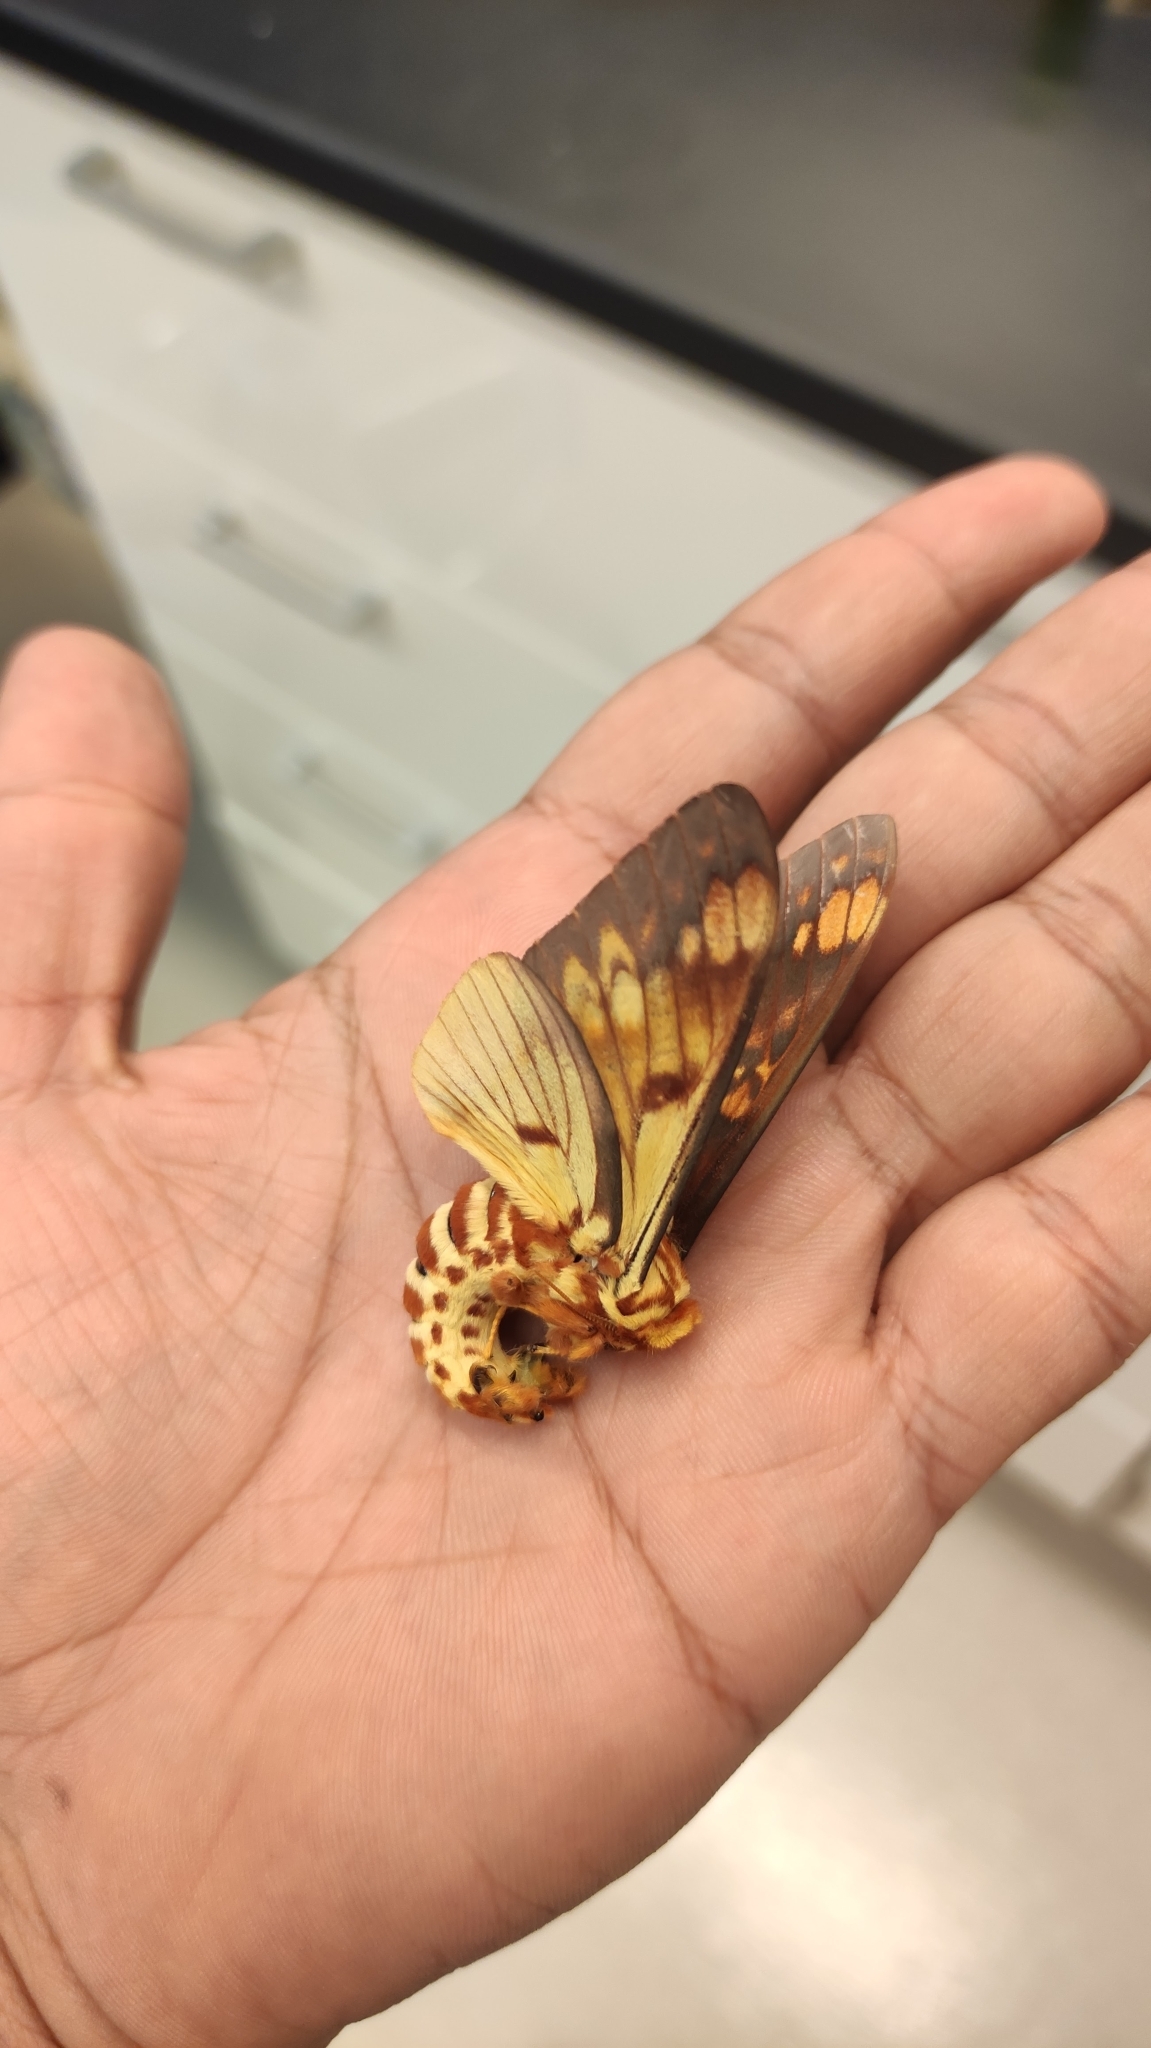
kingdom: Animalia
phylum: Arthropoda
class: Insecta
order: Lepidoptera
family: Saturniidae
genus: Citheronia
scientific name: Citheronia bellavista
